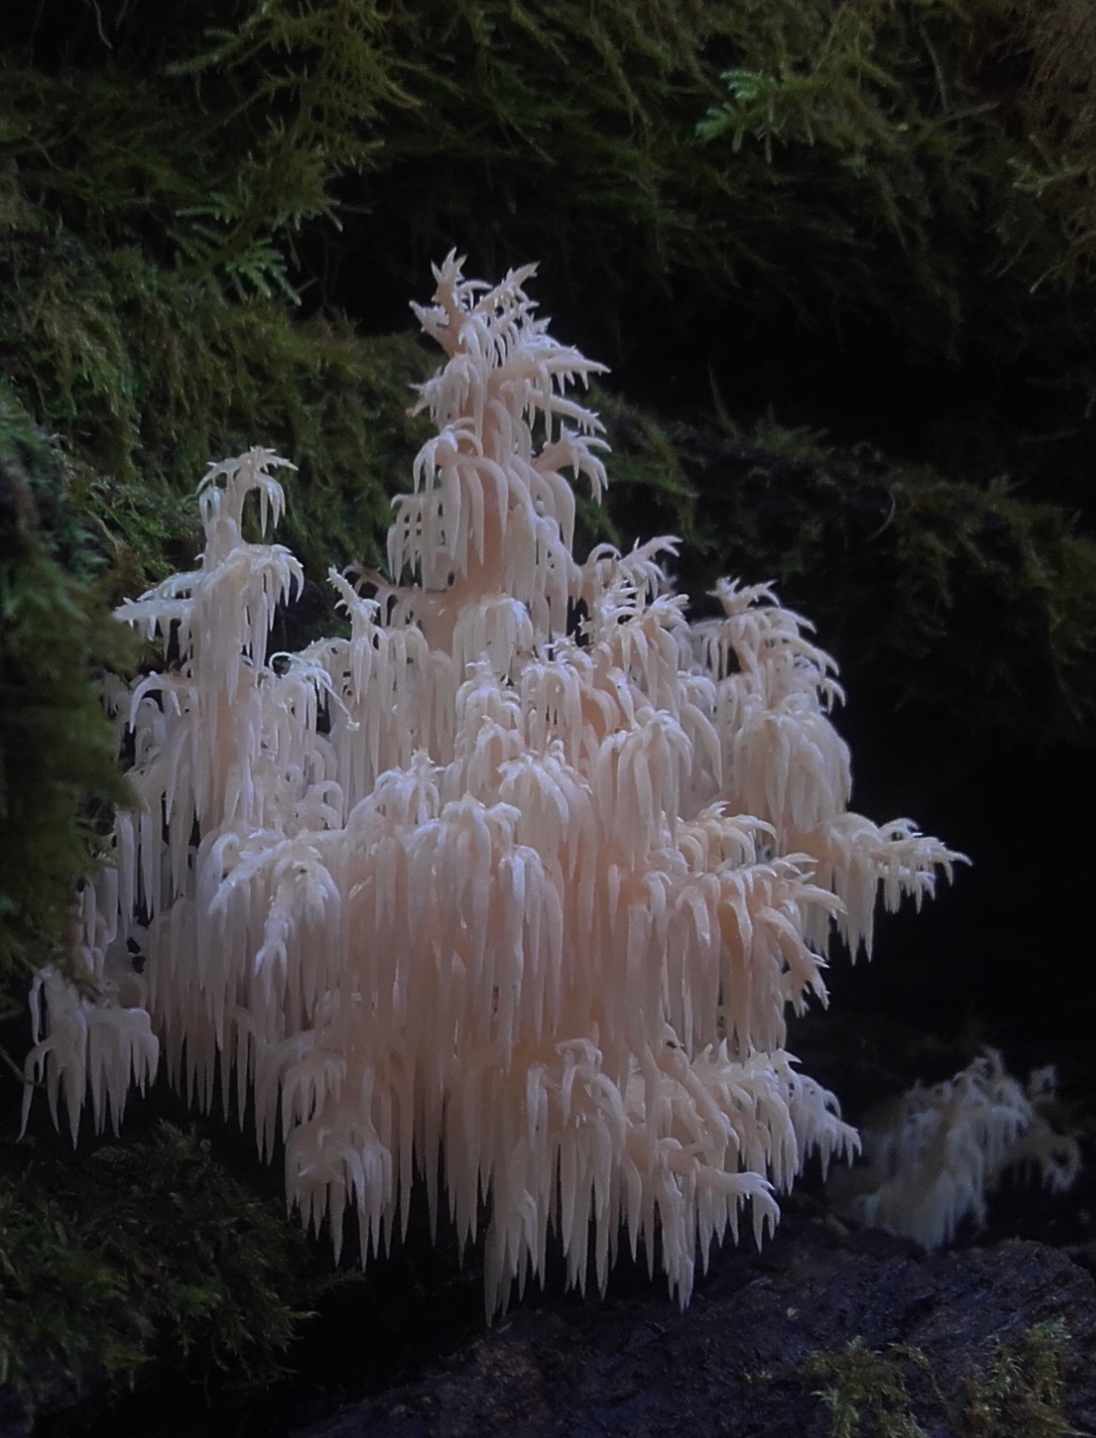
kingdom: Fungi
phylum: Basidiomycota
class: Agaricomycetes
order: Russulales
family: Hericiaceae
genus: Hericium
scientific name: Hericium coralloides
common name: Coral tooth
